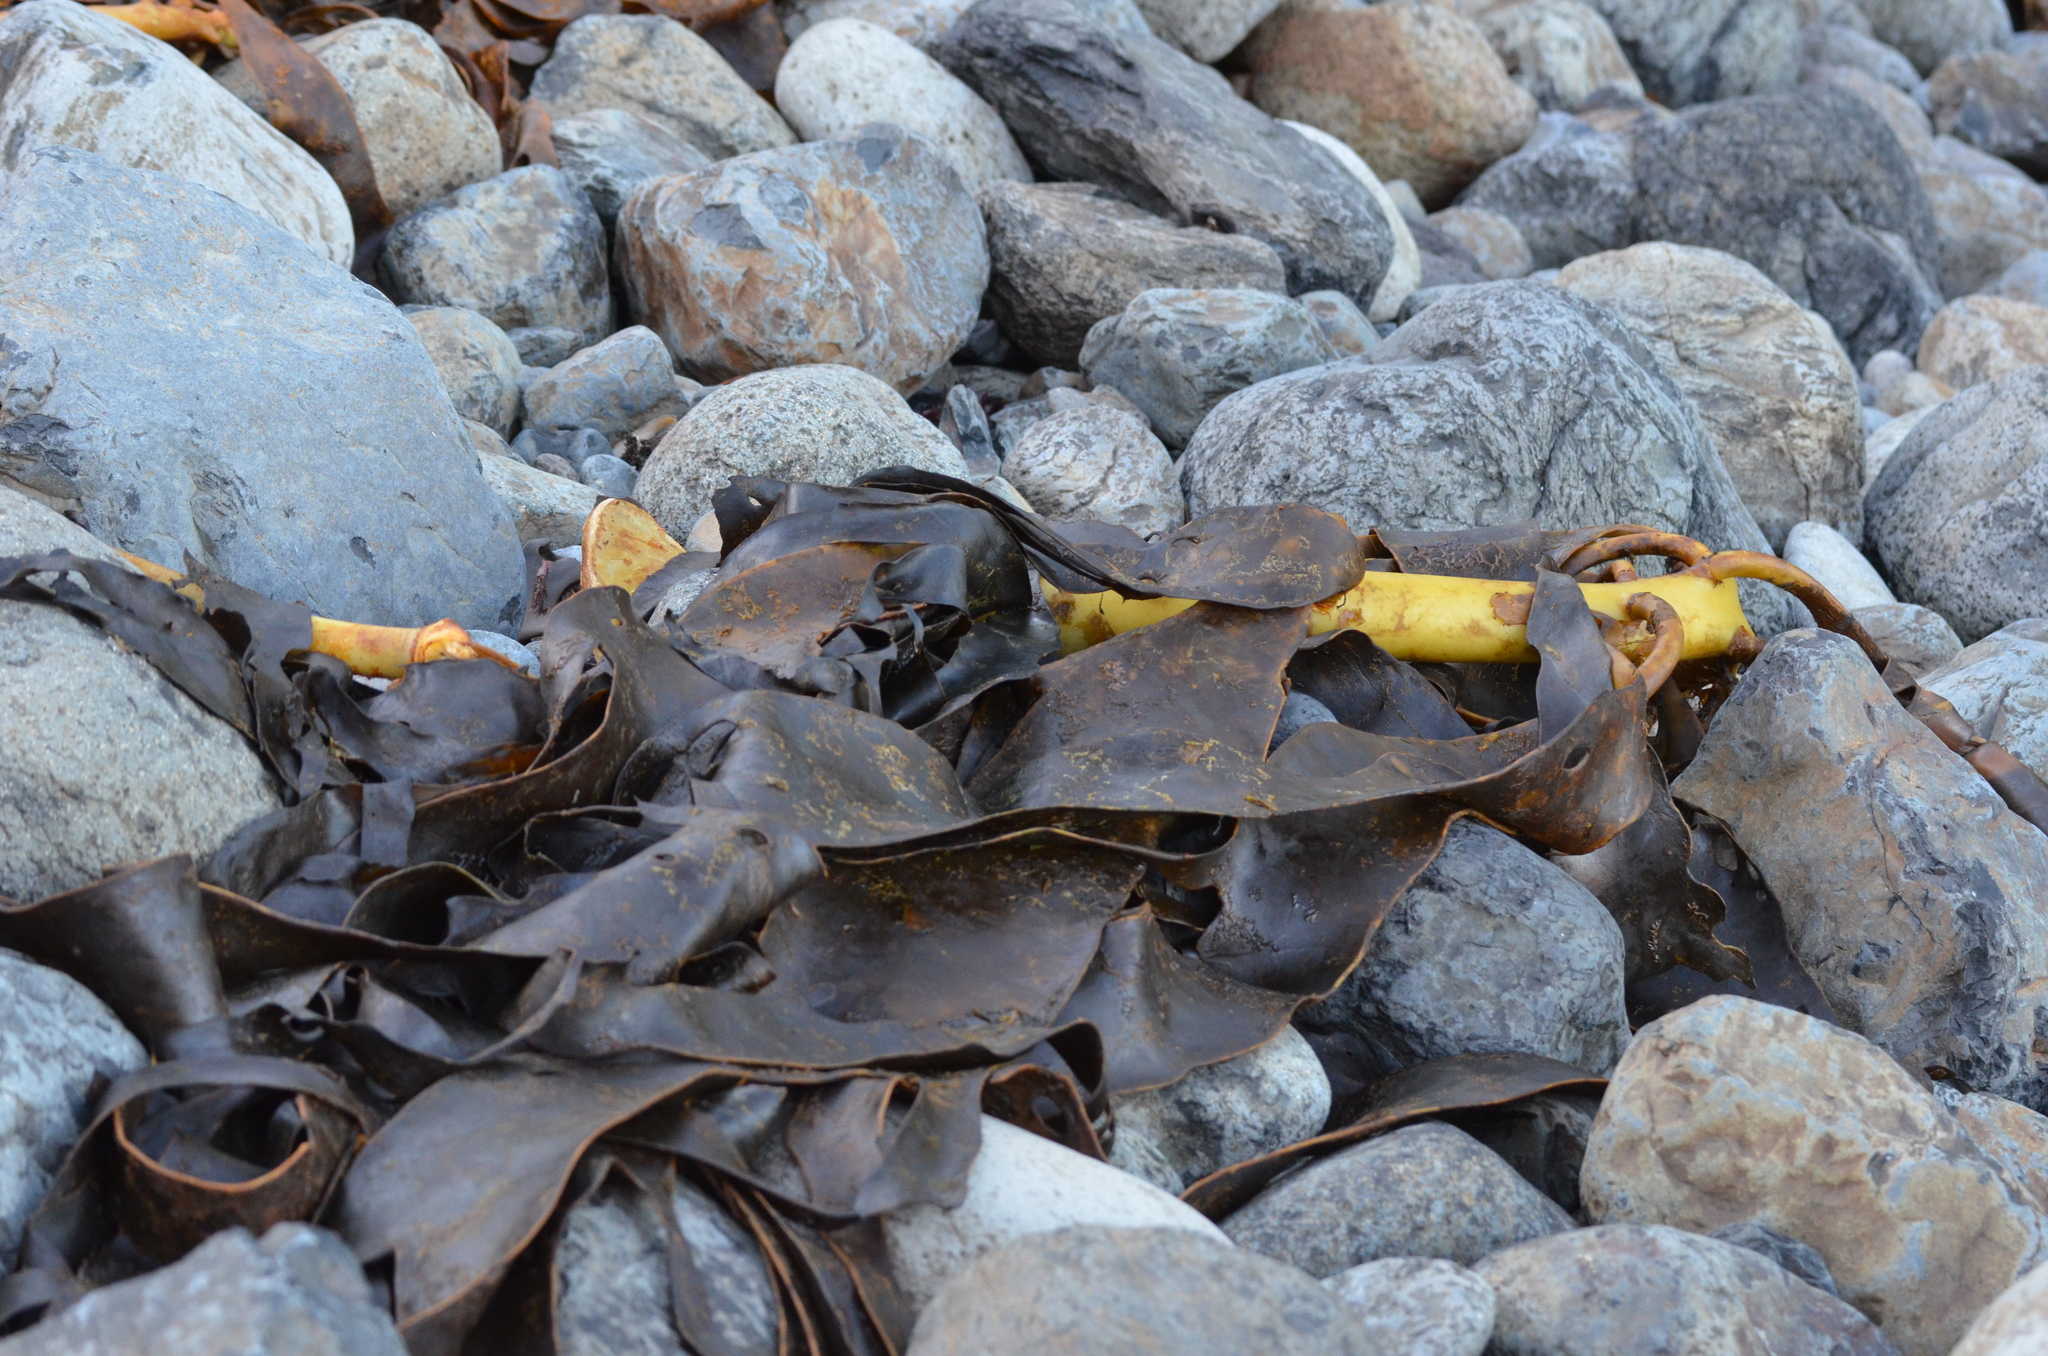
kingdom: Chromista
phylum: Ochrophyta
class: Phaeophyceae
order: Fucales
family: Durvillaeaceae
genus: Durvillaea
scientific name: Durvillaea willana
